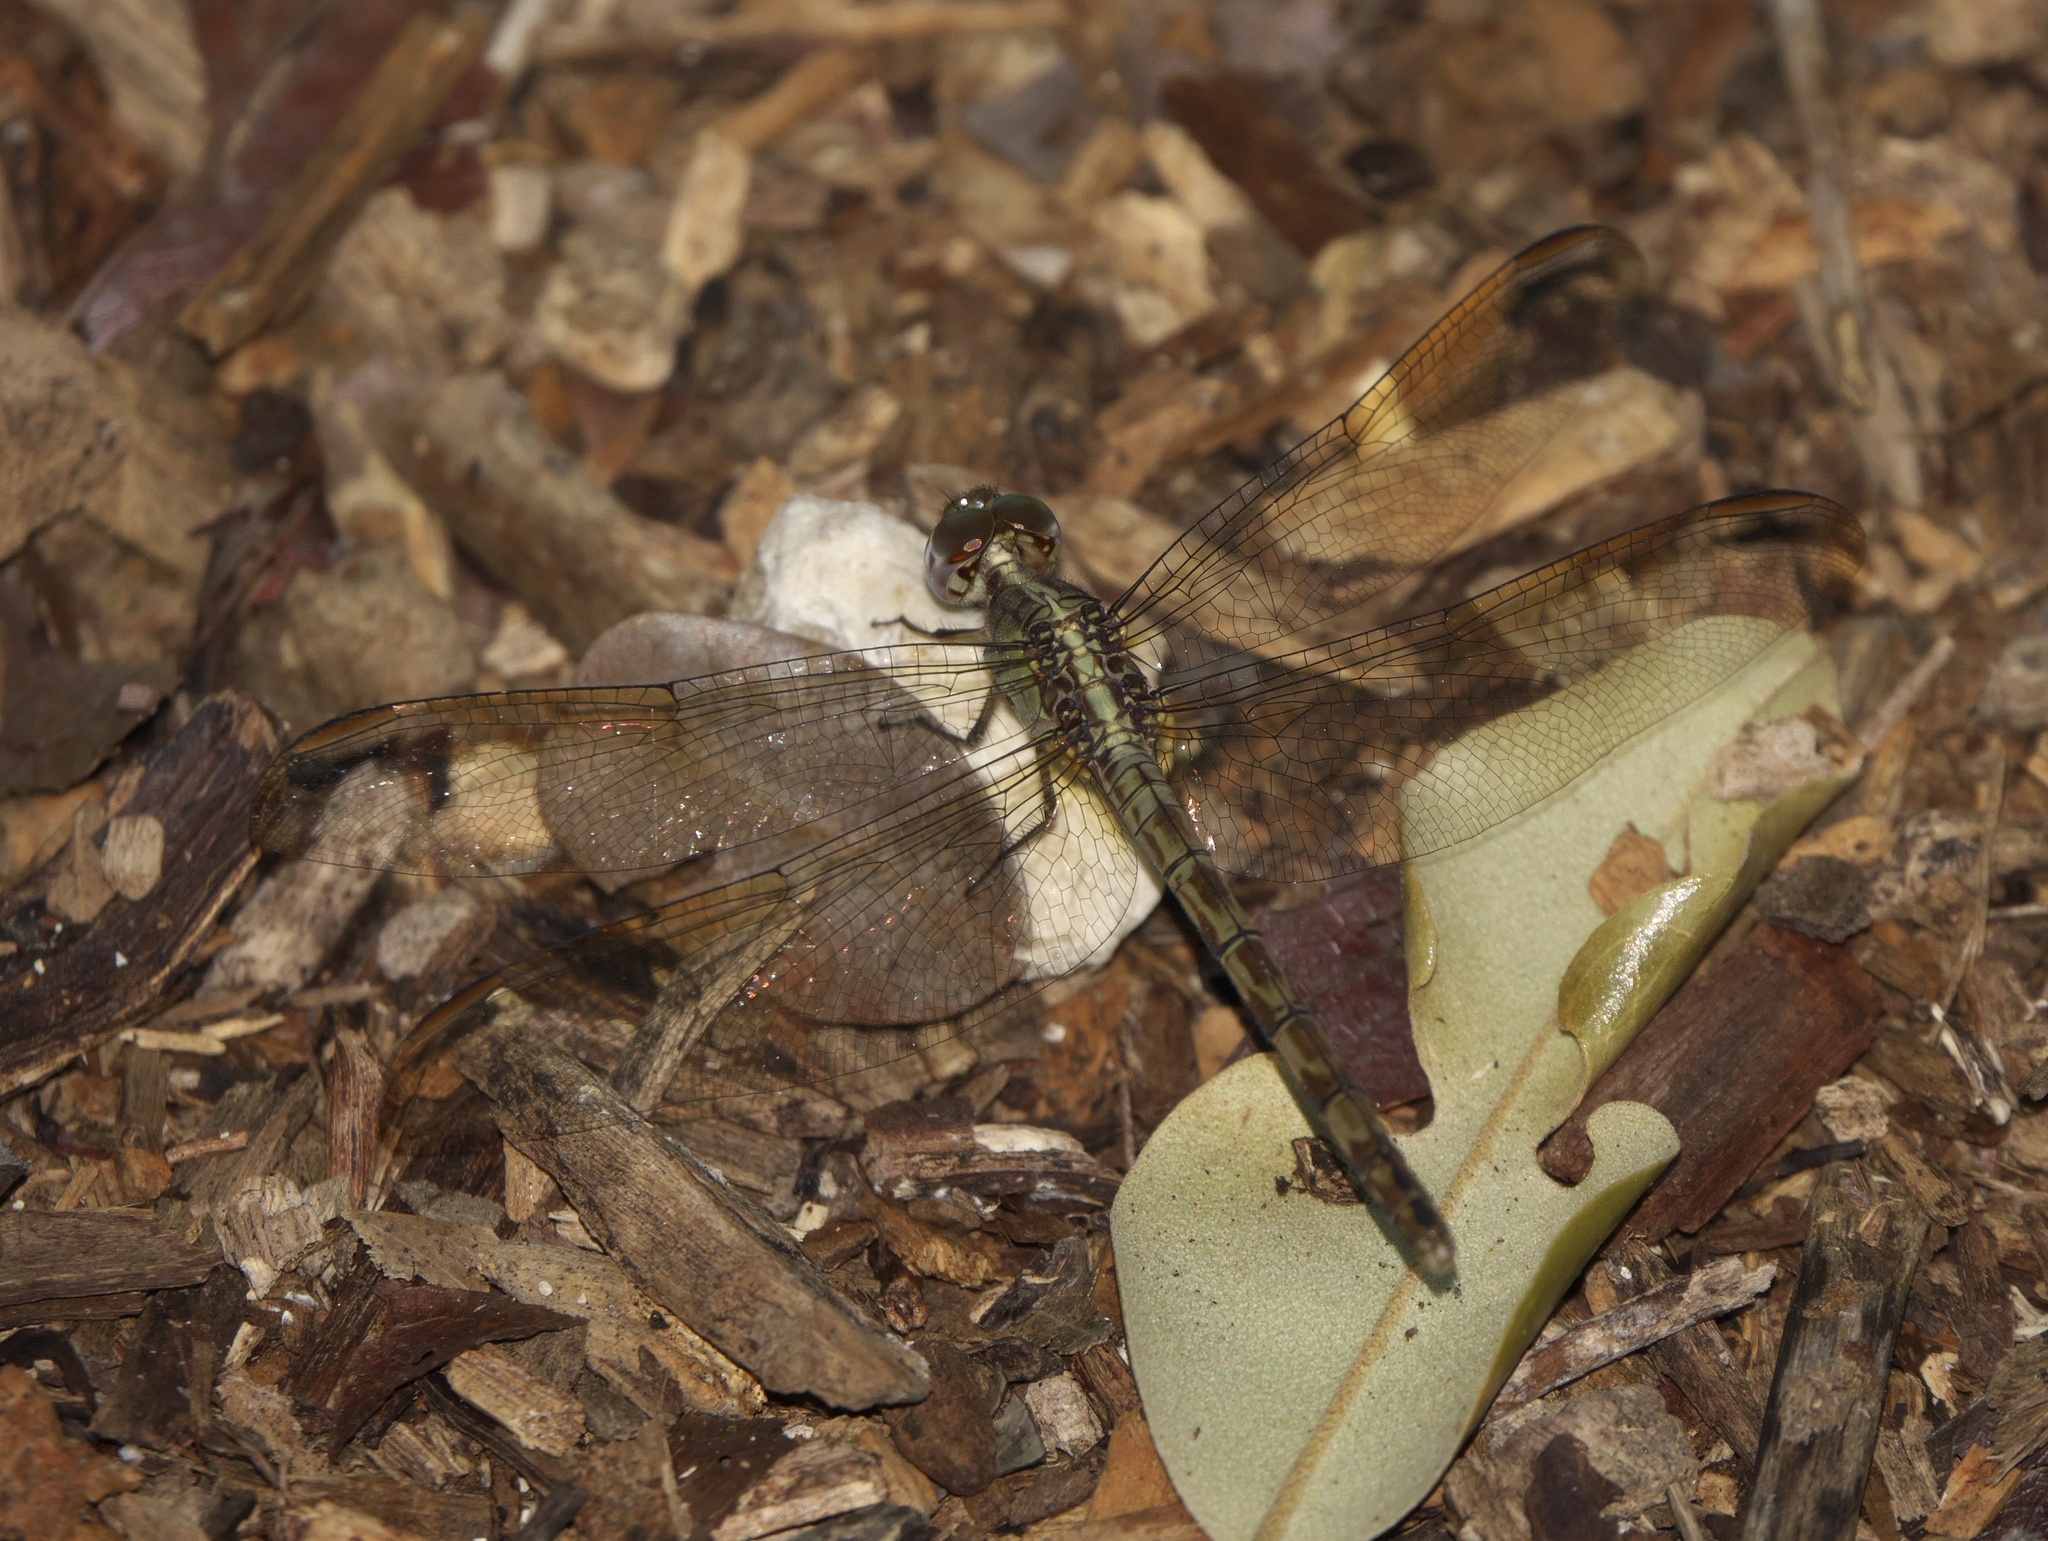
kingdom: Animalia
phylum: Arthropoda
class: Insecta
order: Odonata
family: Libellulidae
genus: Erythrodiplax
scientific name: Erythrodiplax umbrata
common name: Band-winged dragonlet
